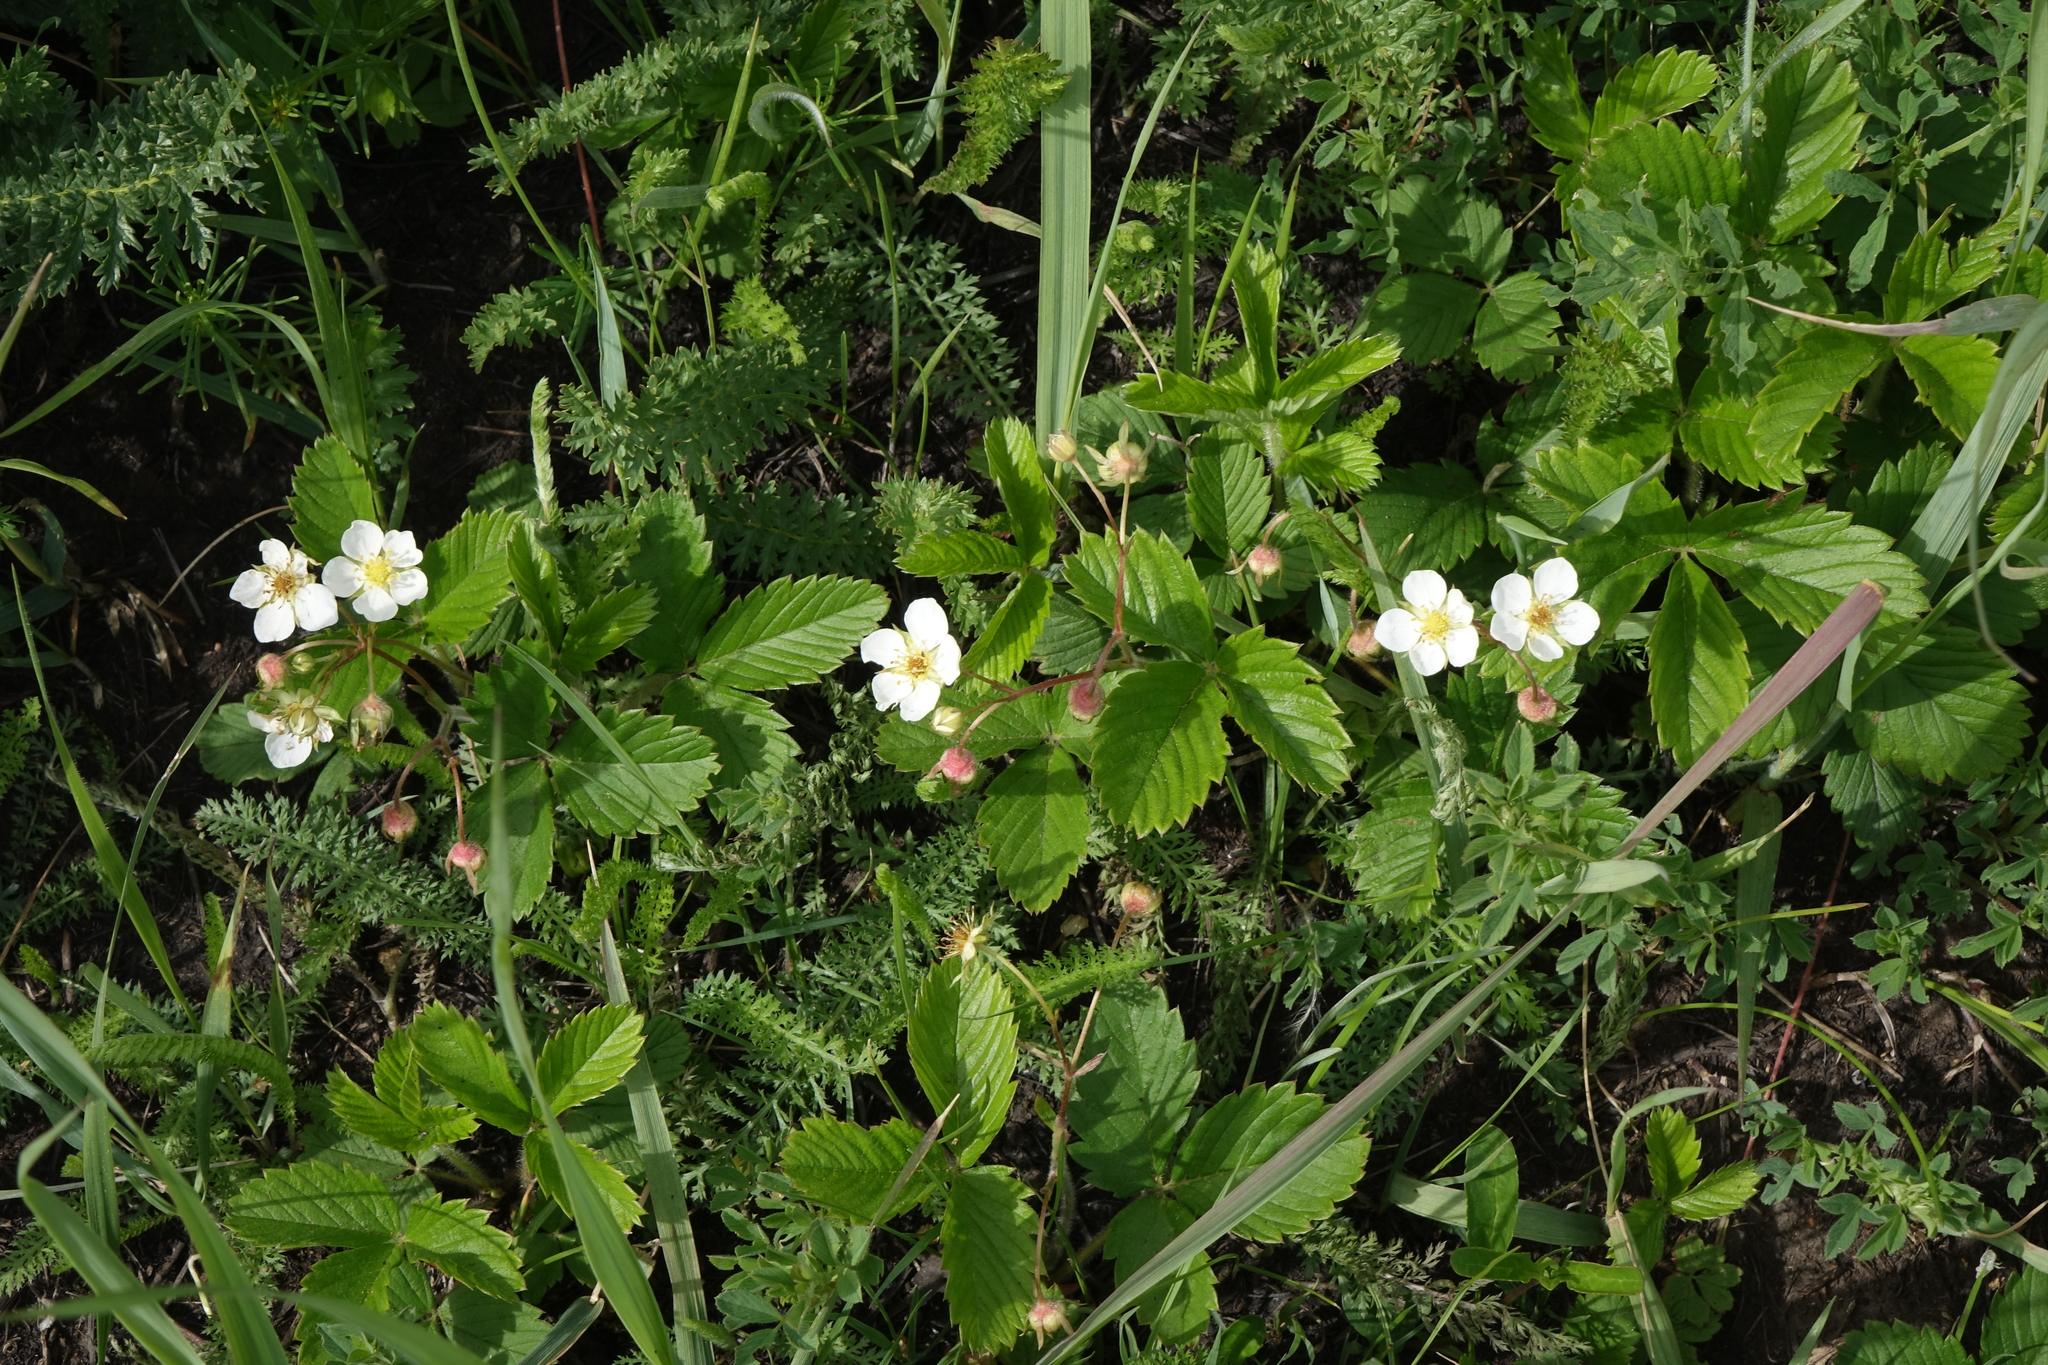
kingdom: Plantae
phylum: Tracheophyta
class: Magnoliopsida
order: Rosales
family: Rosaceae
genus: Fragaria
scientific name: Fragaria viridis
